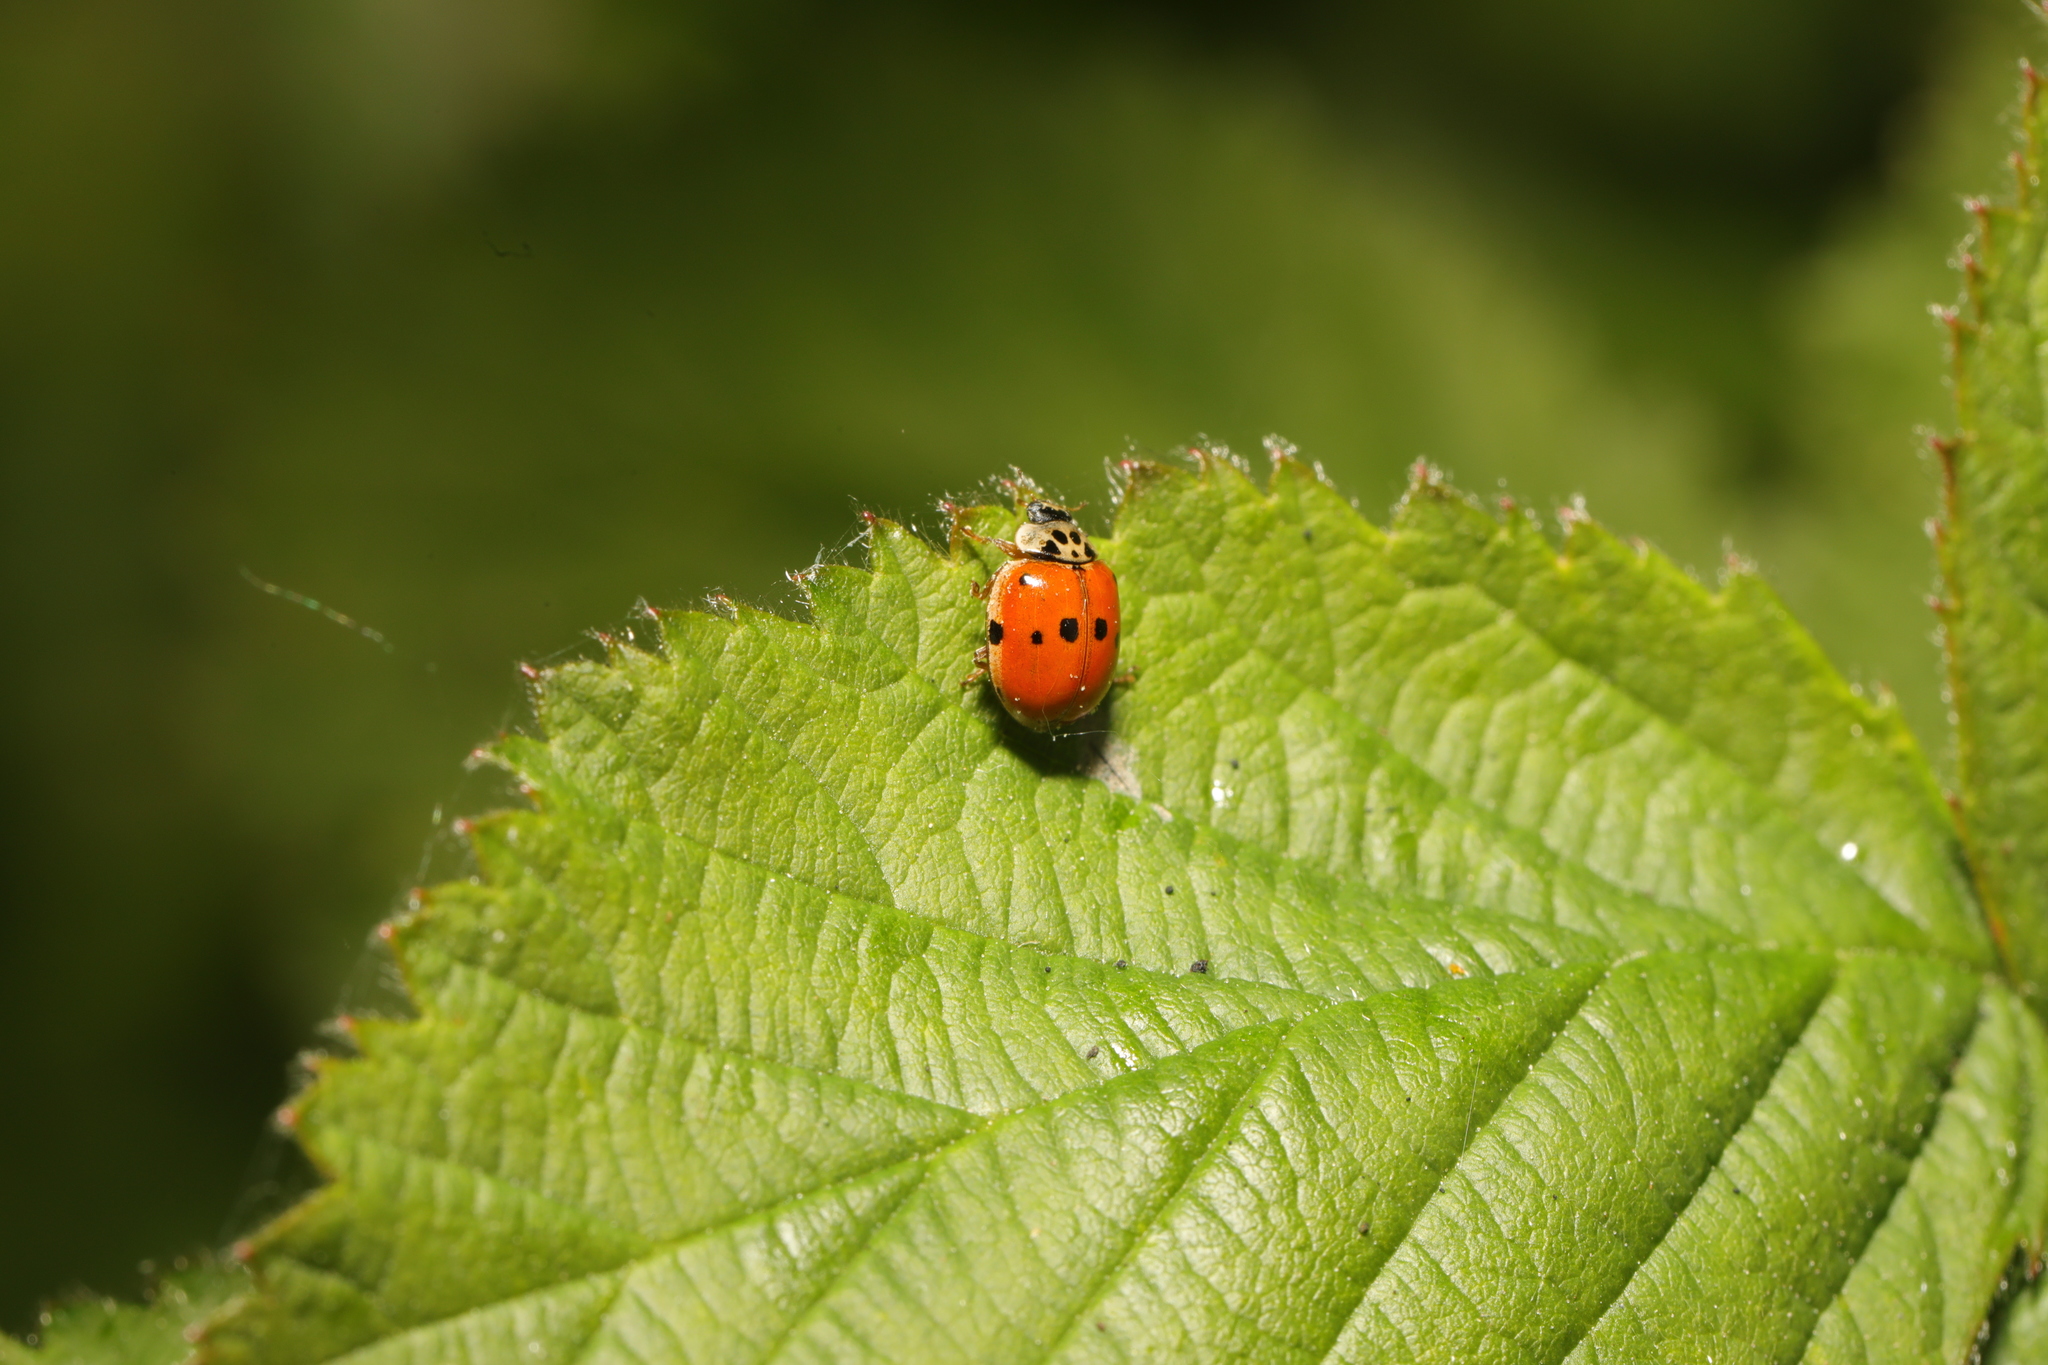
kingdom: Animalia
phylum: Arthropoda
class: Insecta
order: Coleoptera
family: Coccinellidae
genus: Adalia
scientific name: Adalia decempunctata
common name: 10-spot ladybird
